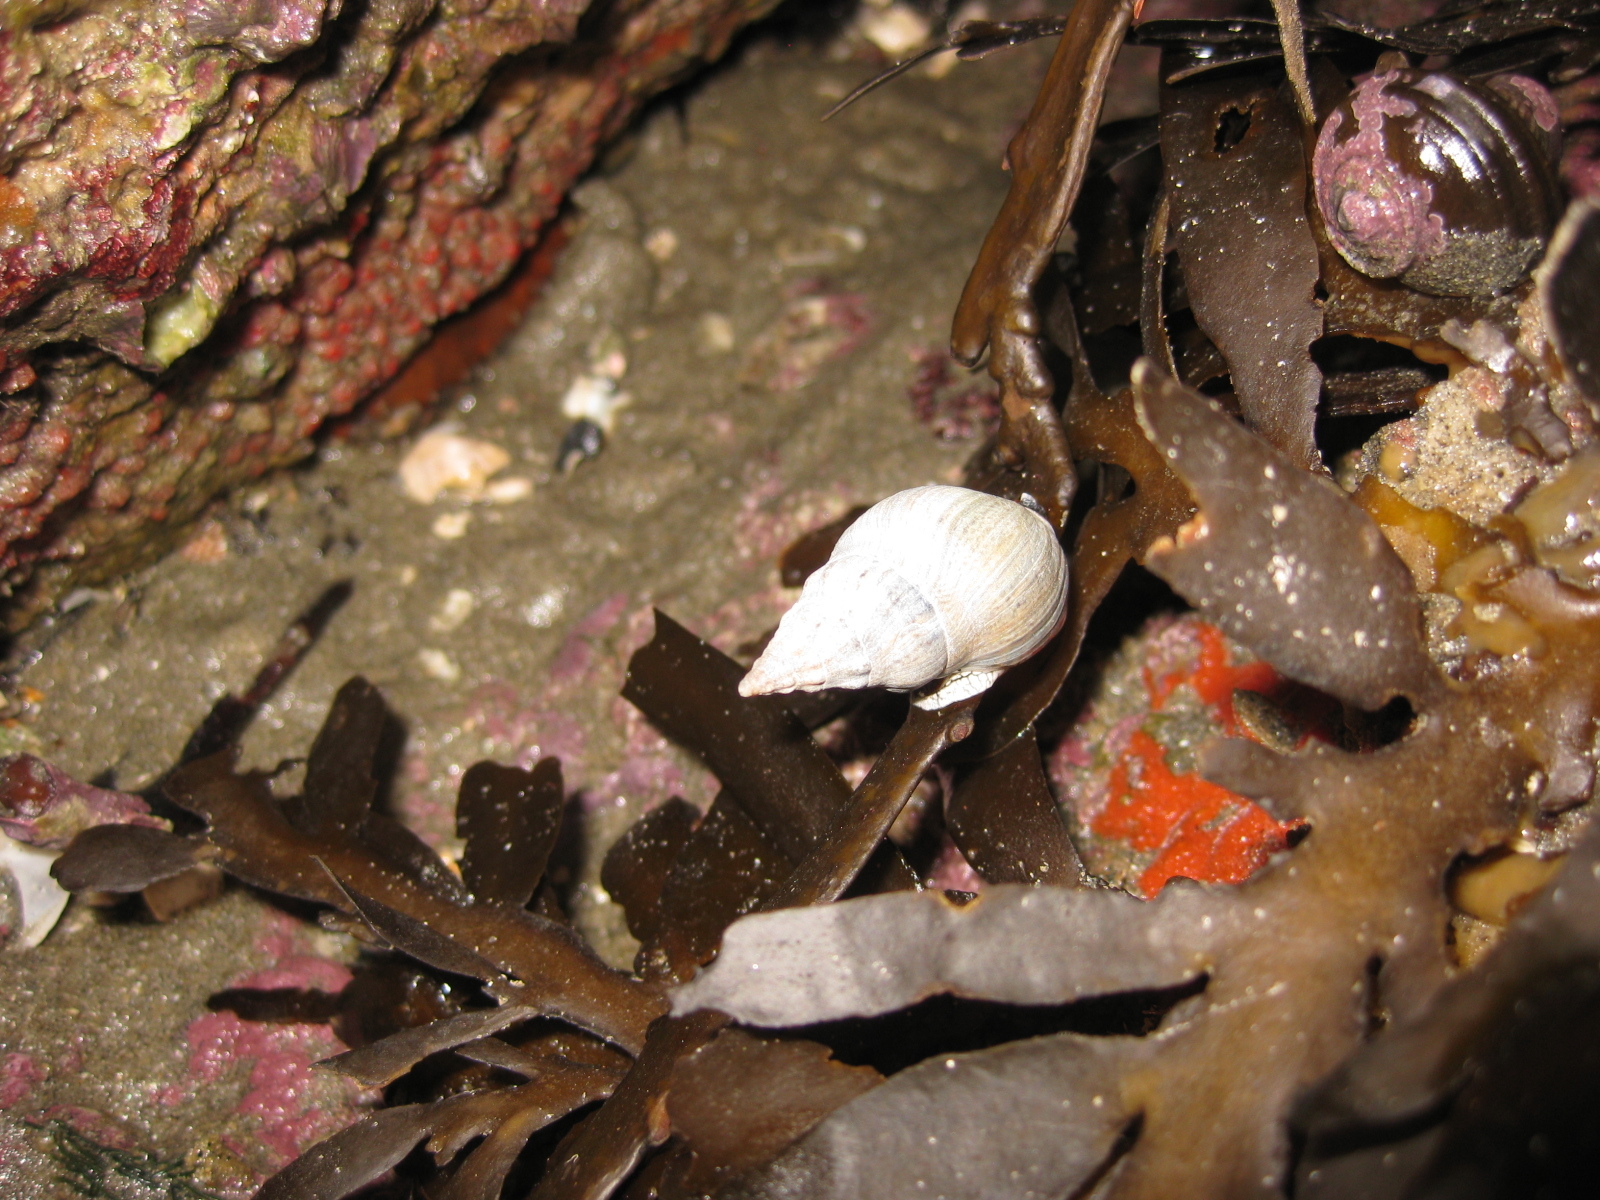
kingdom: Animalia
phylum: Mollusca
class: Gastropoda
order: Neogastropoda
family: Cominellidae
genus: Cominella
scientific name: Cominella virgata
